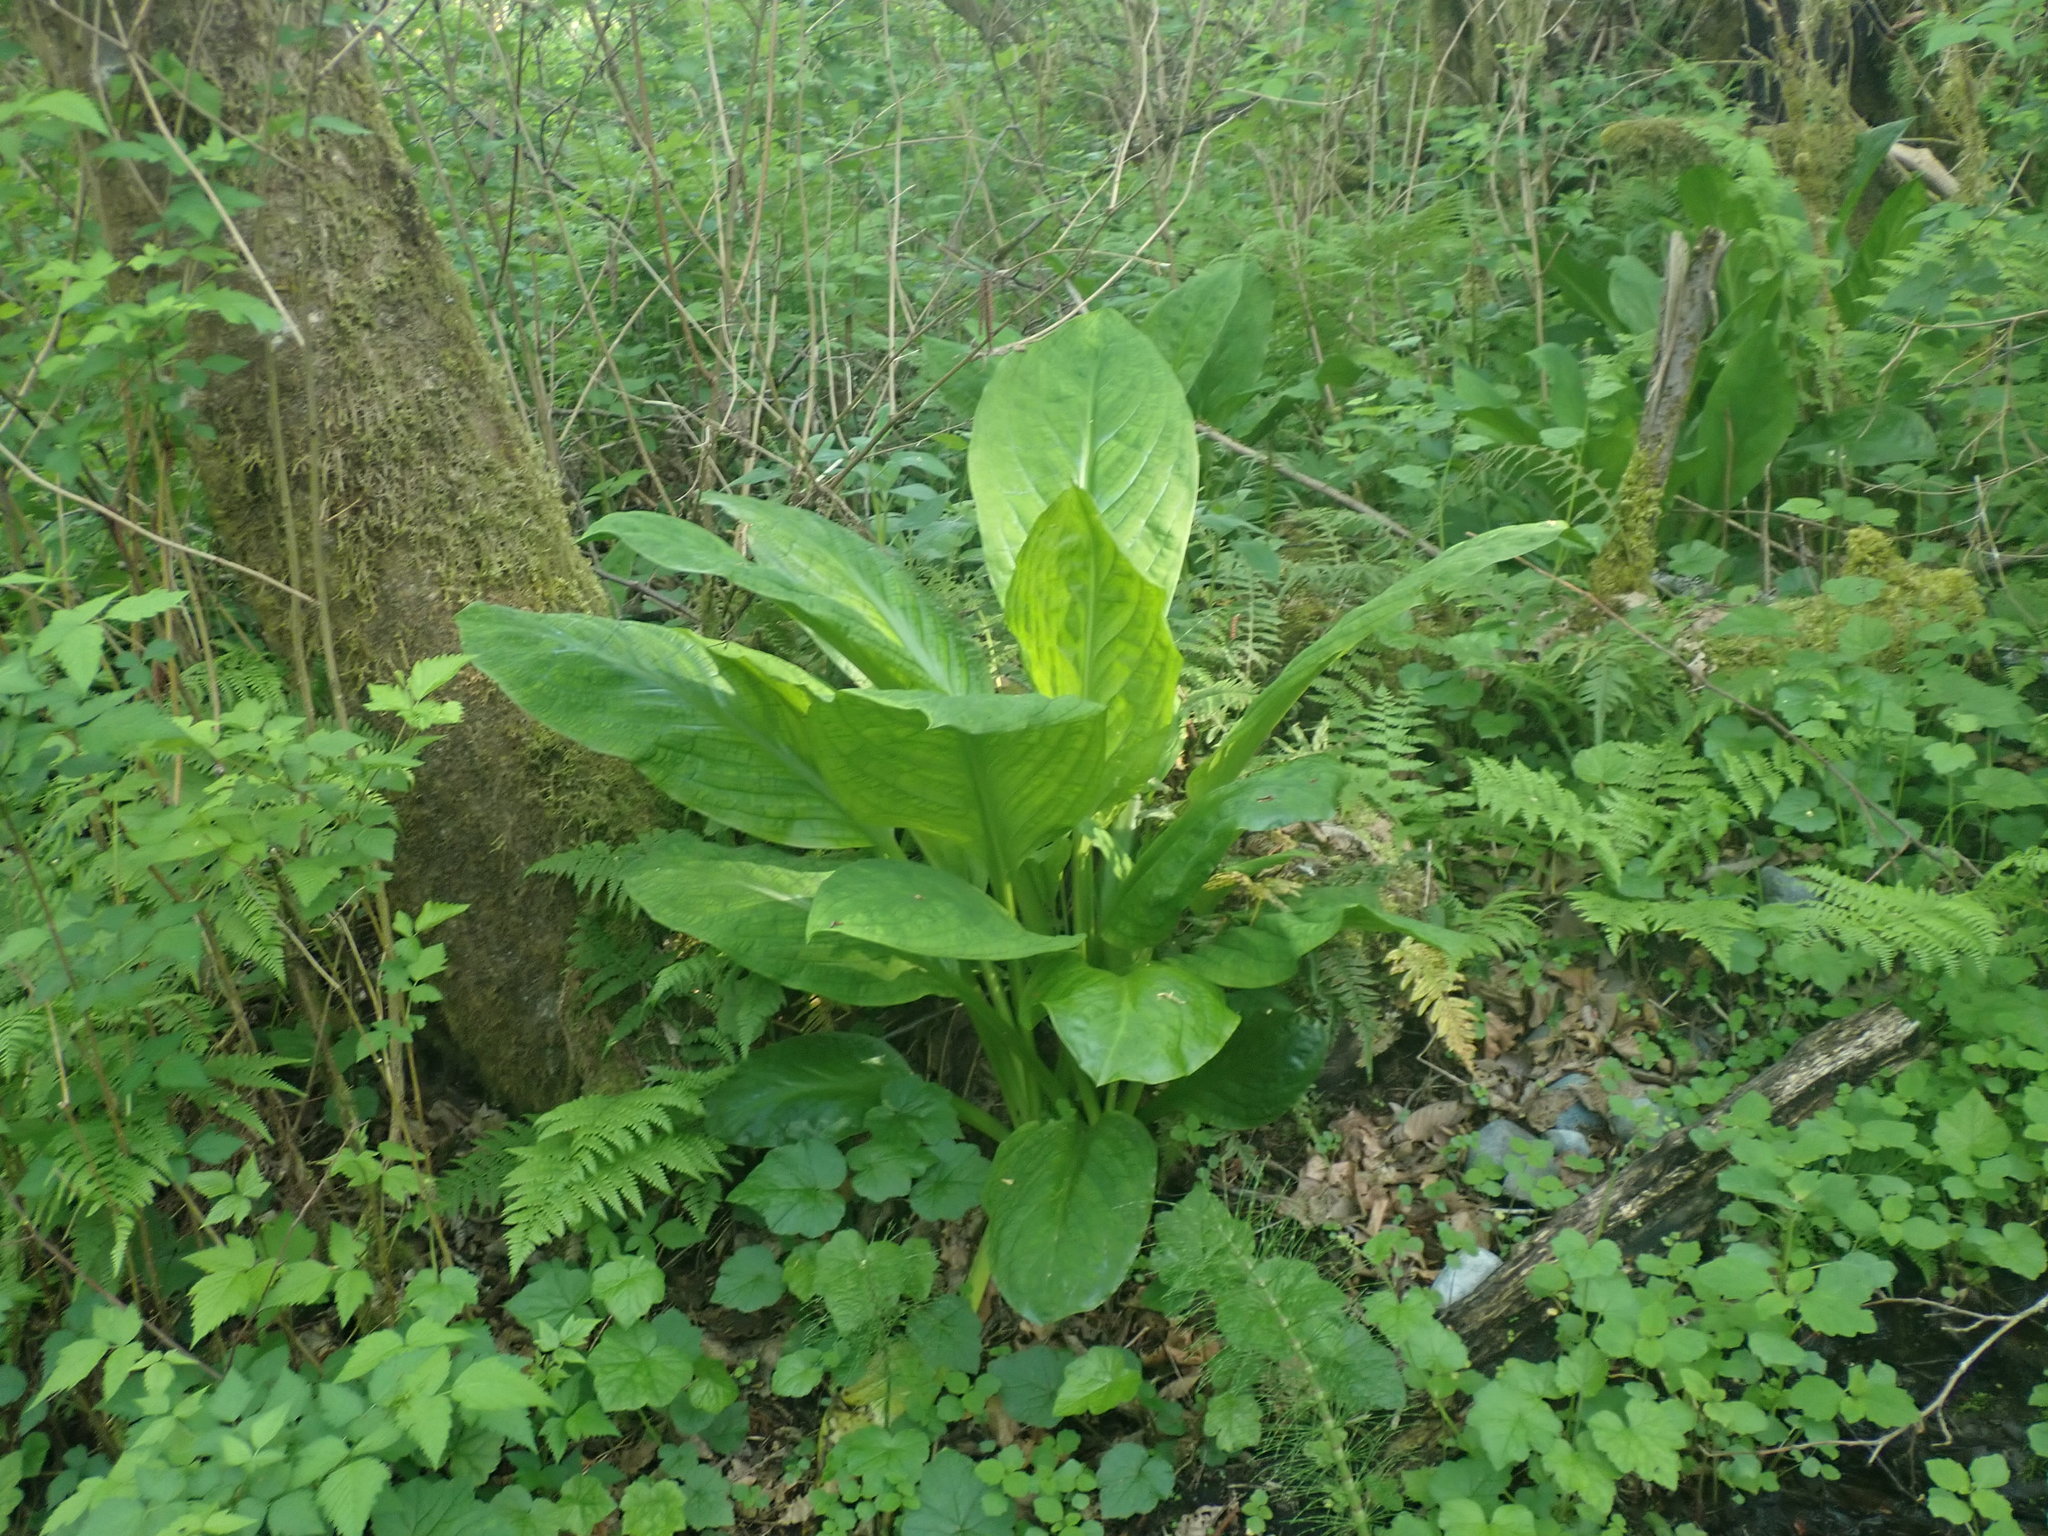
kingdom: Plantae
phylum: Tracheophyta
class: Liliopsida
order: Alismatales
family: Araceae
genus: Lysichiton
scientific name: Lysichiton americanus
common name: American skunk cabbage
